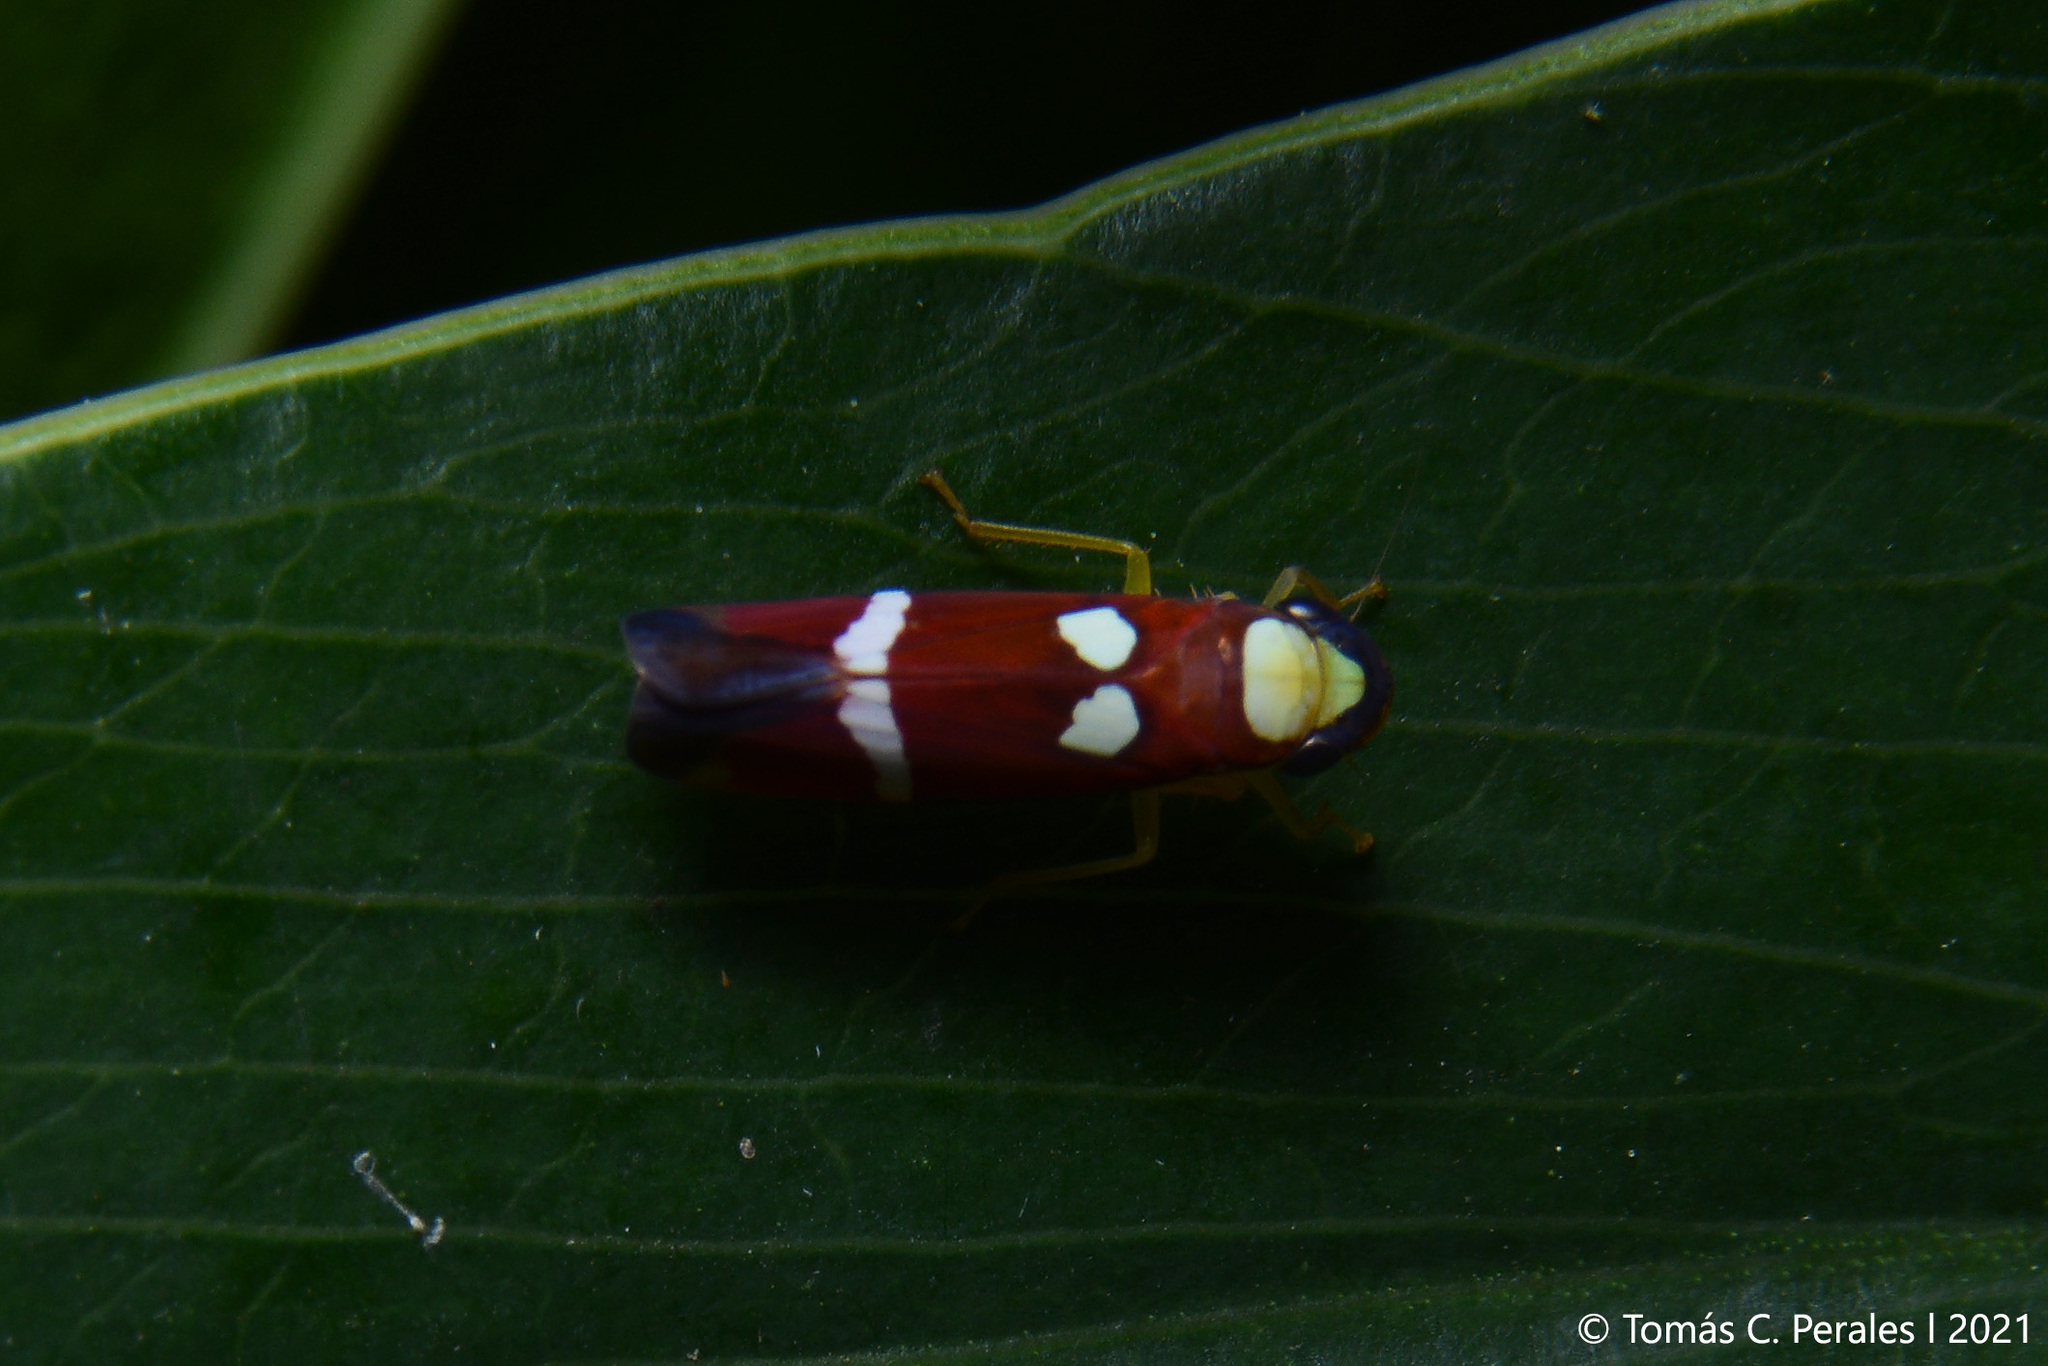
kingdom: Animalia
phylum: Arthropoda
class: Insecta
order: Hemiptera
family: Cicadellidae
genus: Erythrogonia
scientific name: Erythrogonia odonsera
